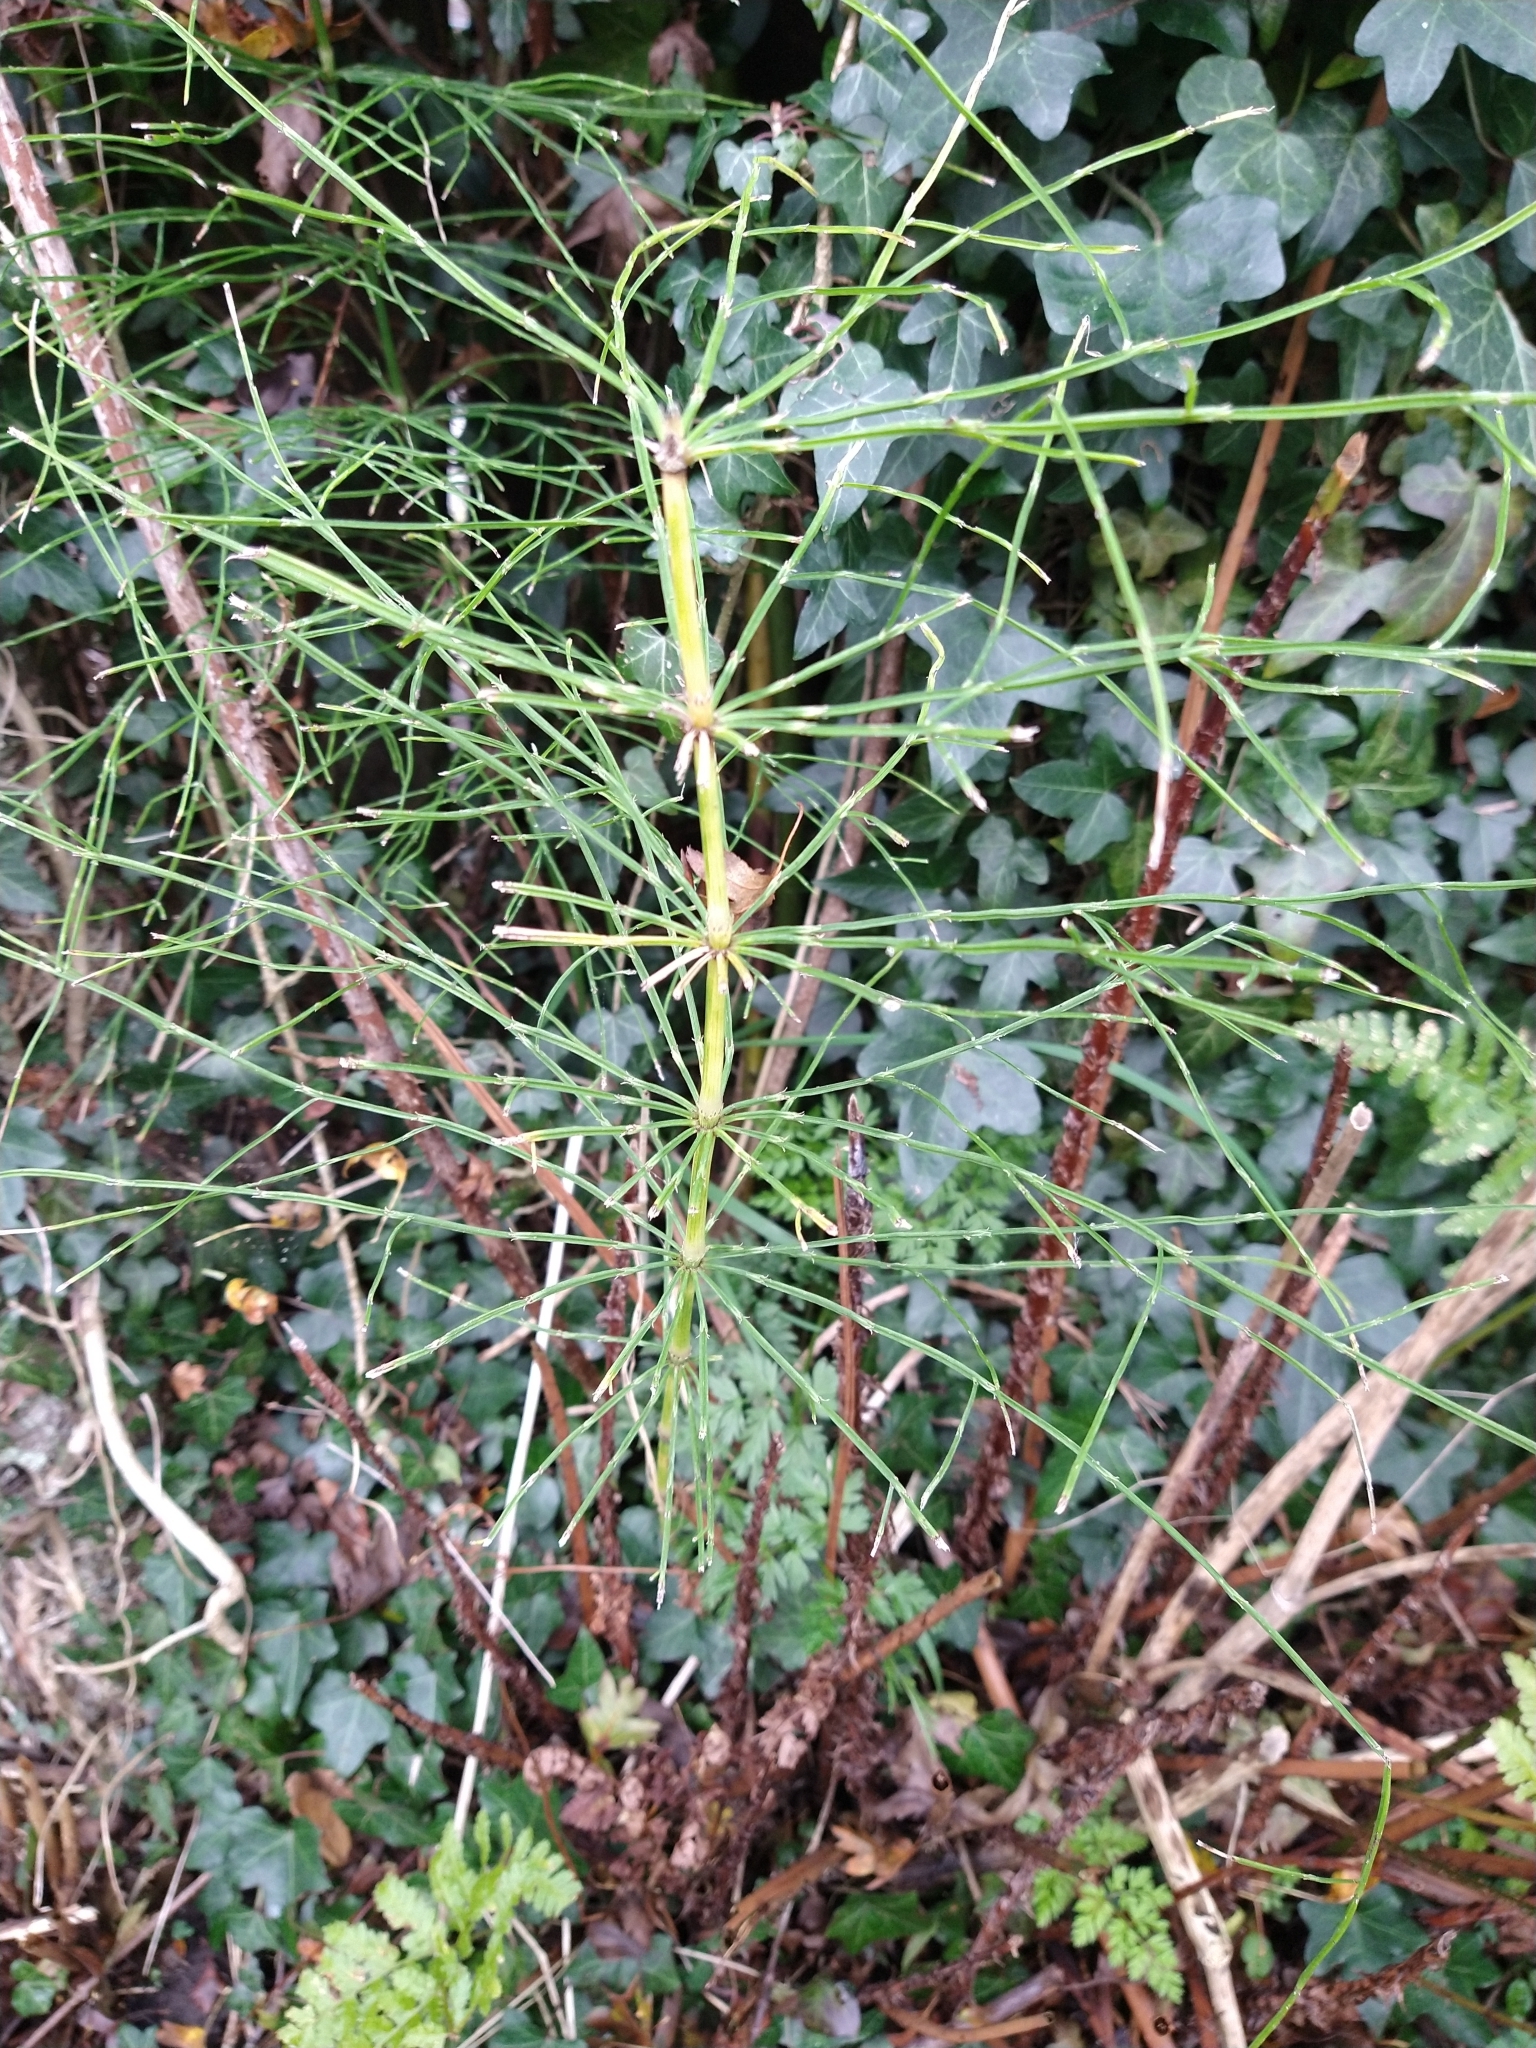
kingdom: Plantae
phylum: Tracheophyta
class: Polypodiopsida
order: Equisetales
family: Equisetaceae
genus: Equisetum
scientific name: Equisetum arvense
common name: Field horsetail
